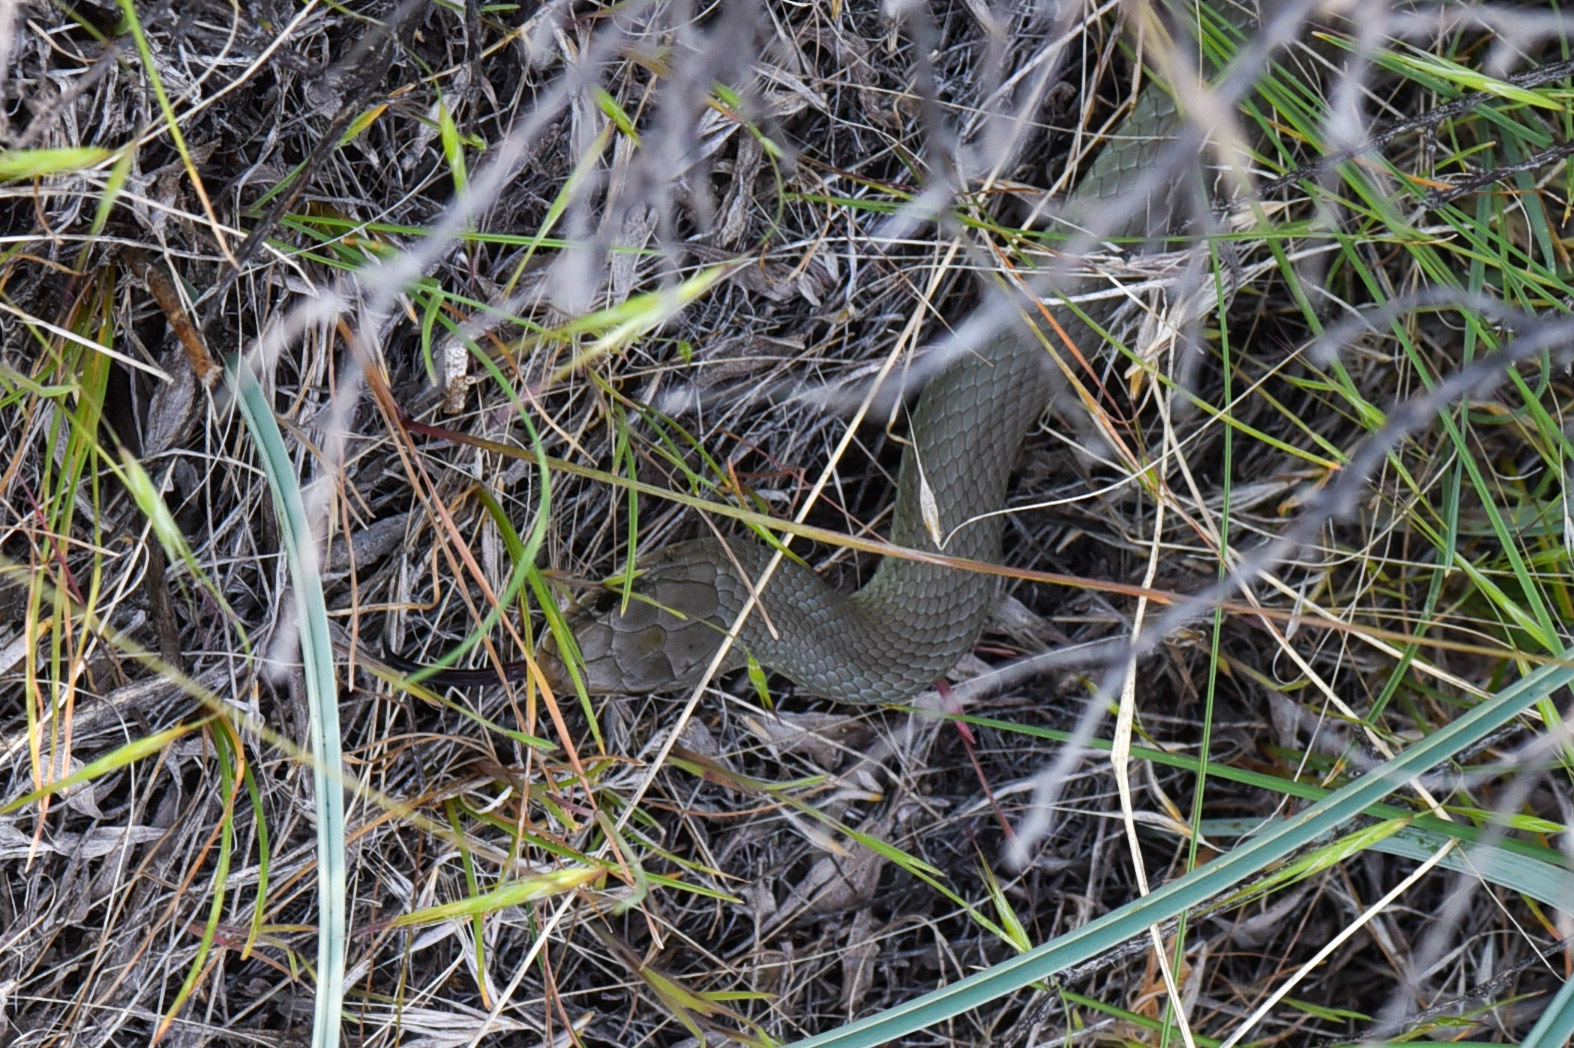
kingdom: Animalia
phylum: Chordata
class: Squamata
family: Colubridae
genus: Coluber
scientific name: Coluber constrictor
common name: Eastern racer
